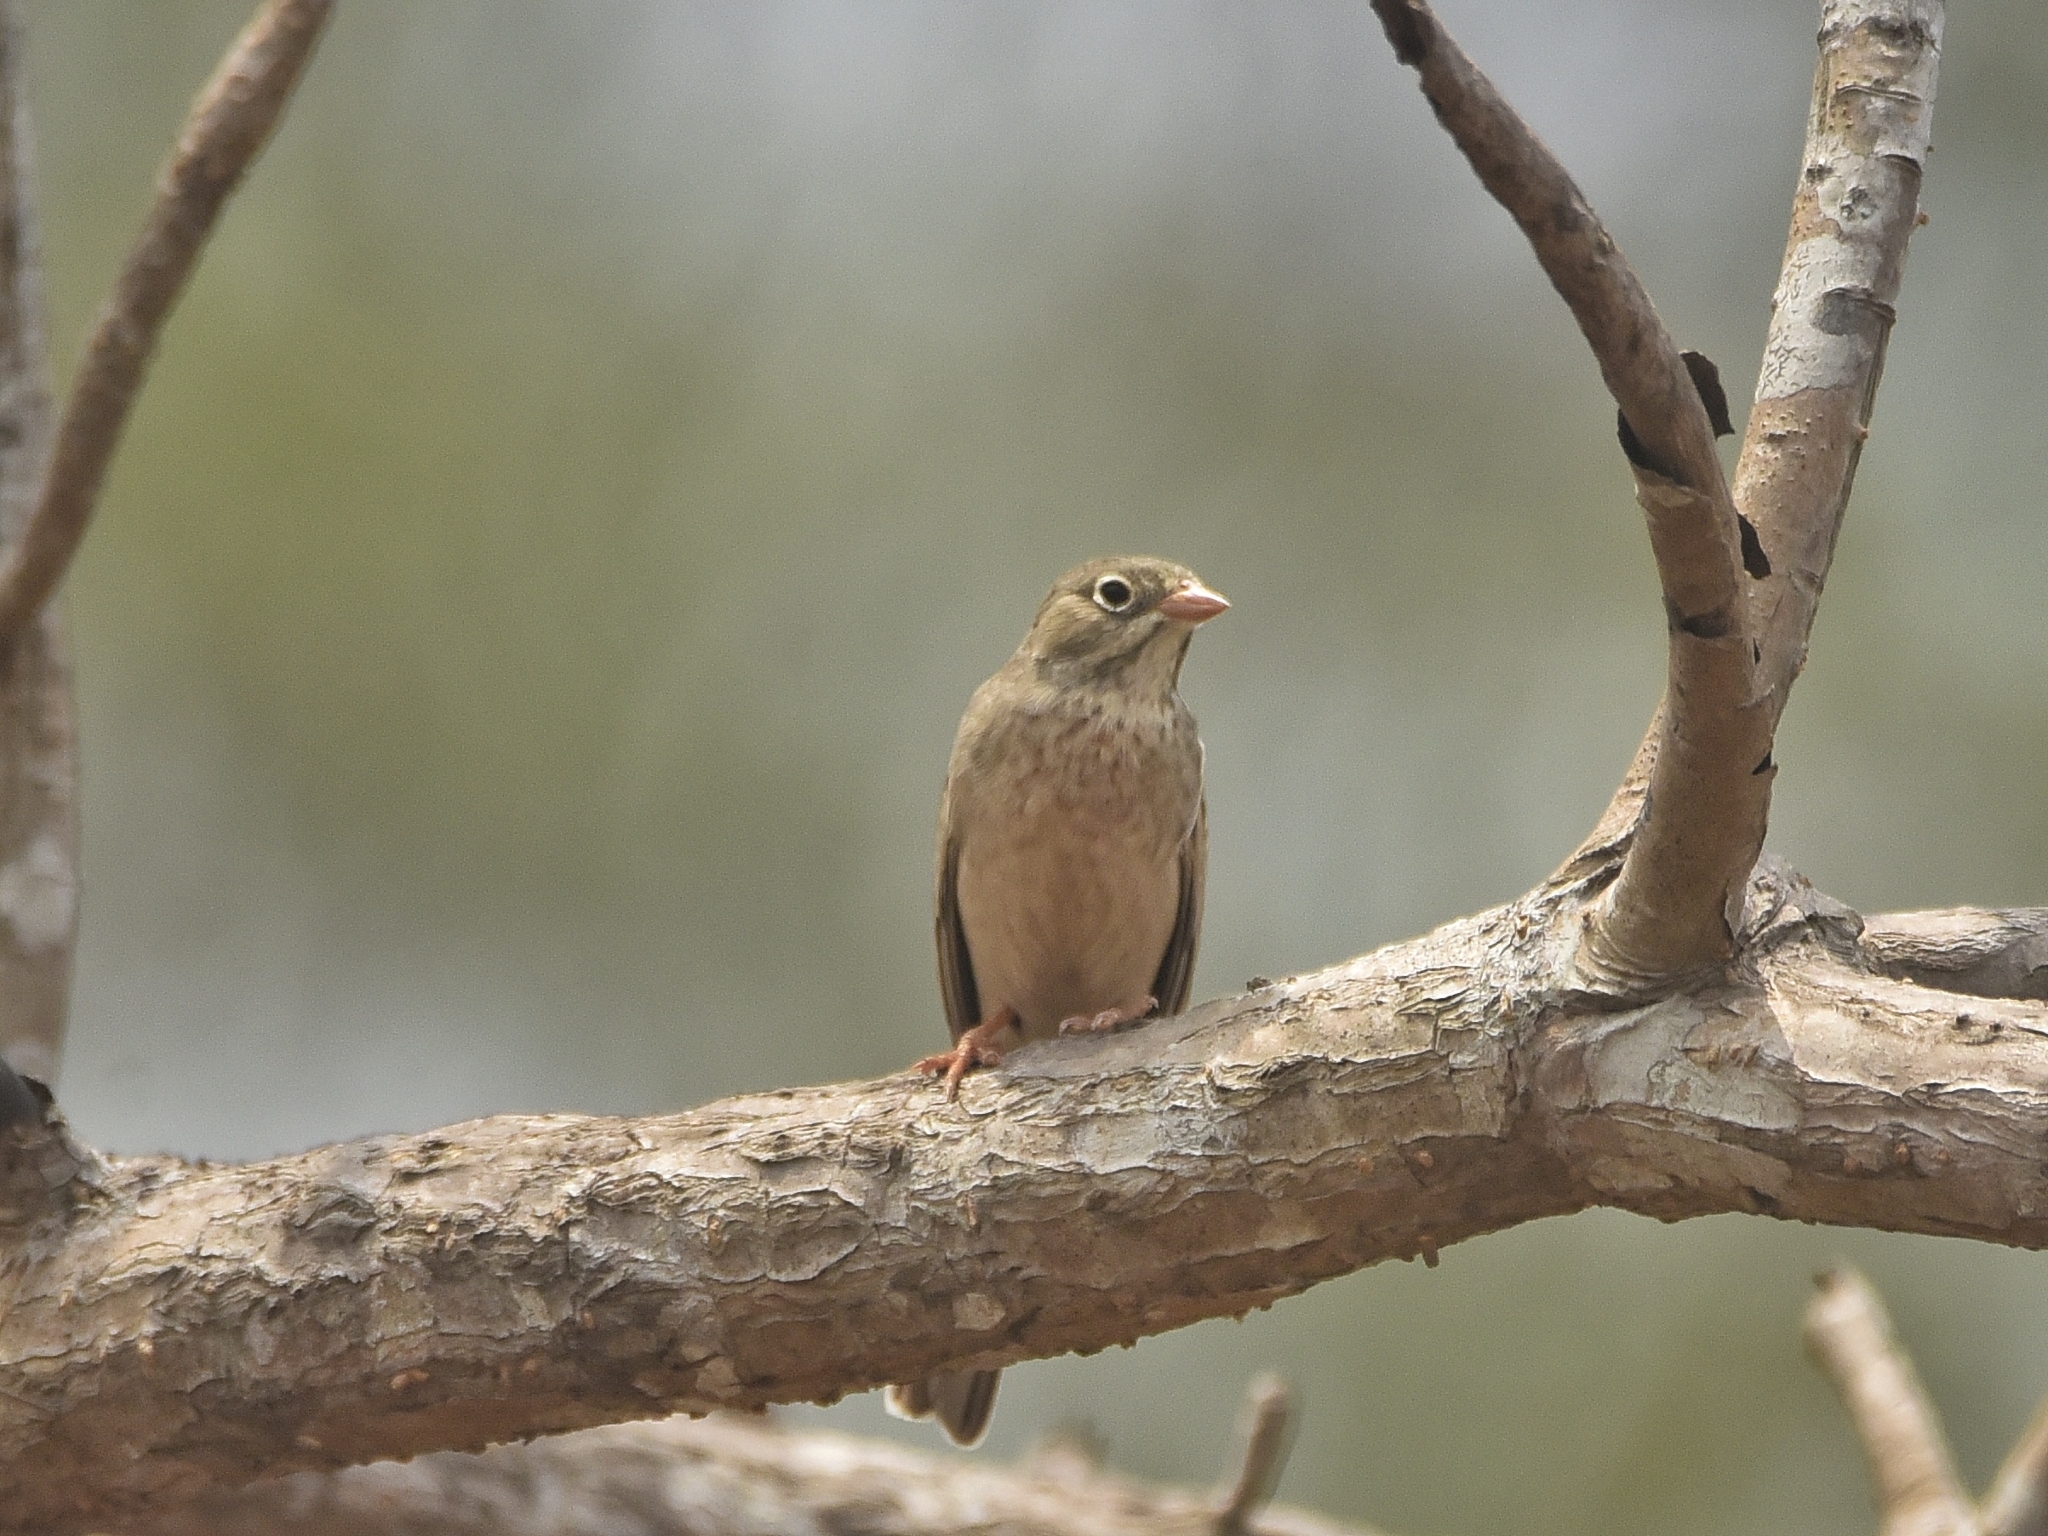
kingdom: Animalia
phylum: Chordata
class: Aves
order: Passeriformes
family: Emberizidae
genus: Emberiza
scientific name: Emberiza buchanani
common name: Grey-necked bunting
